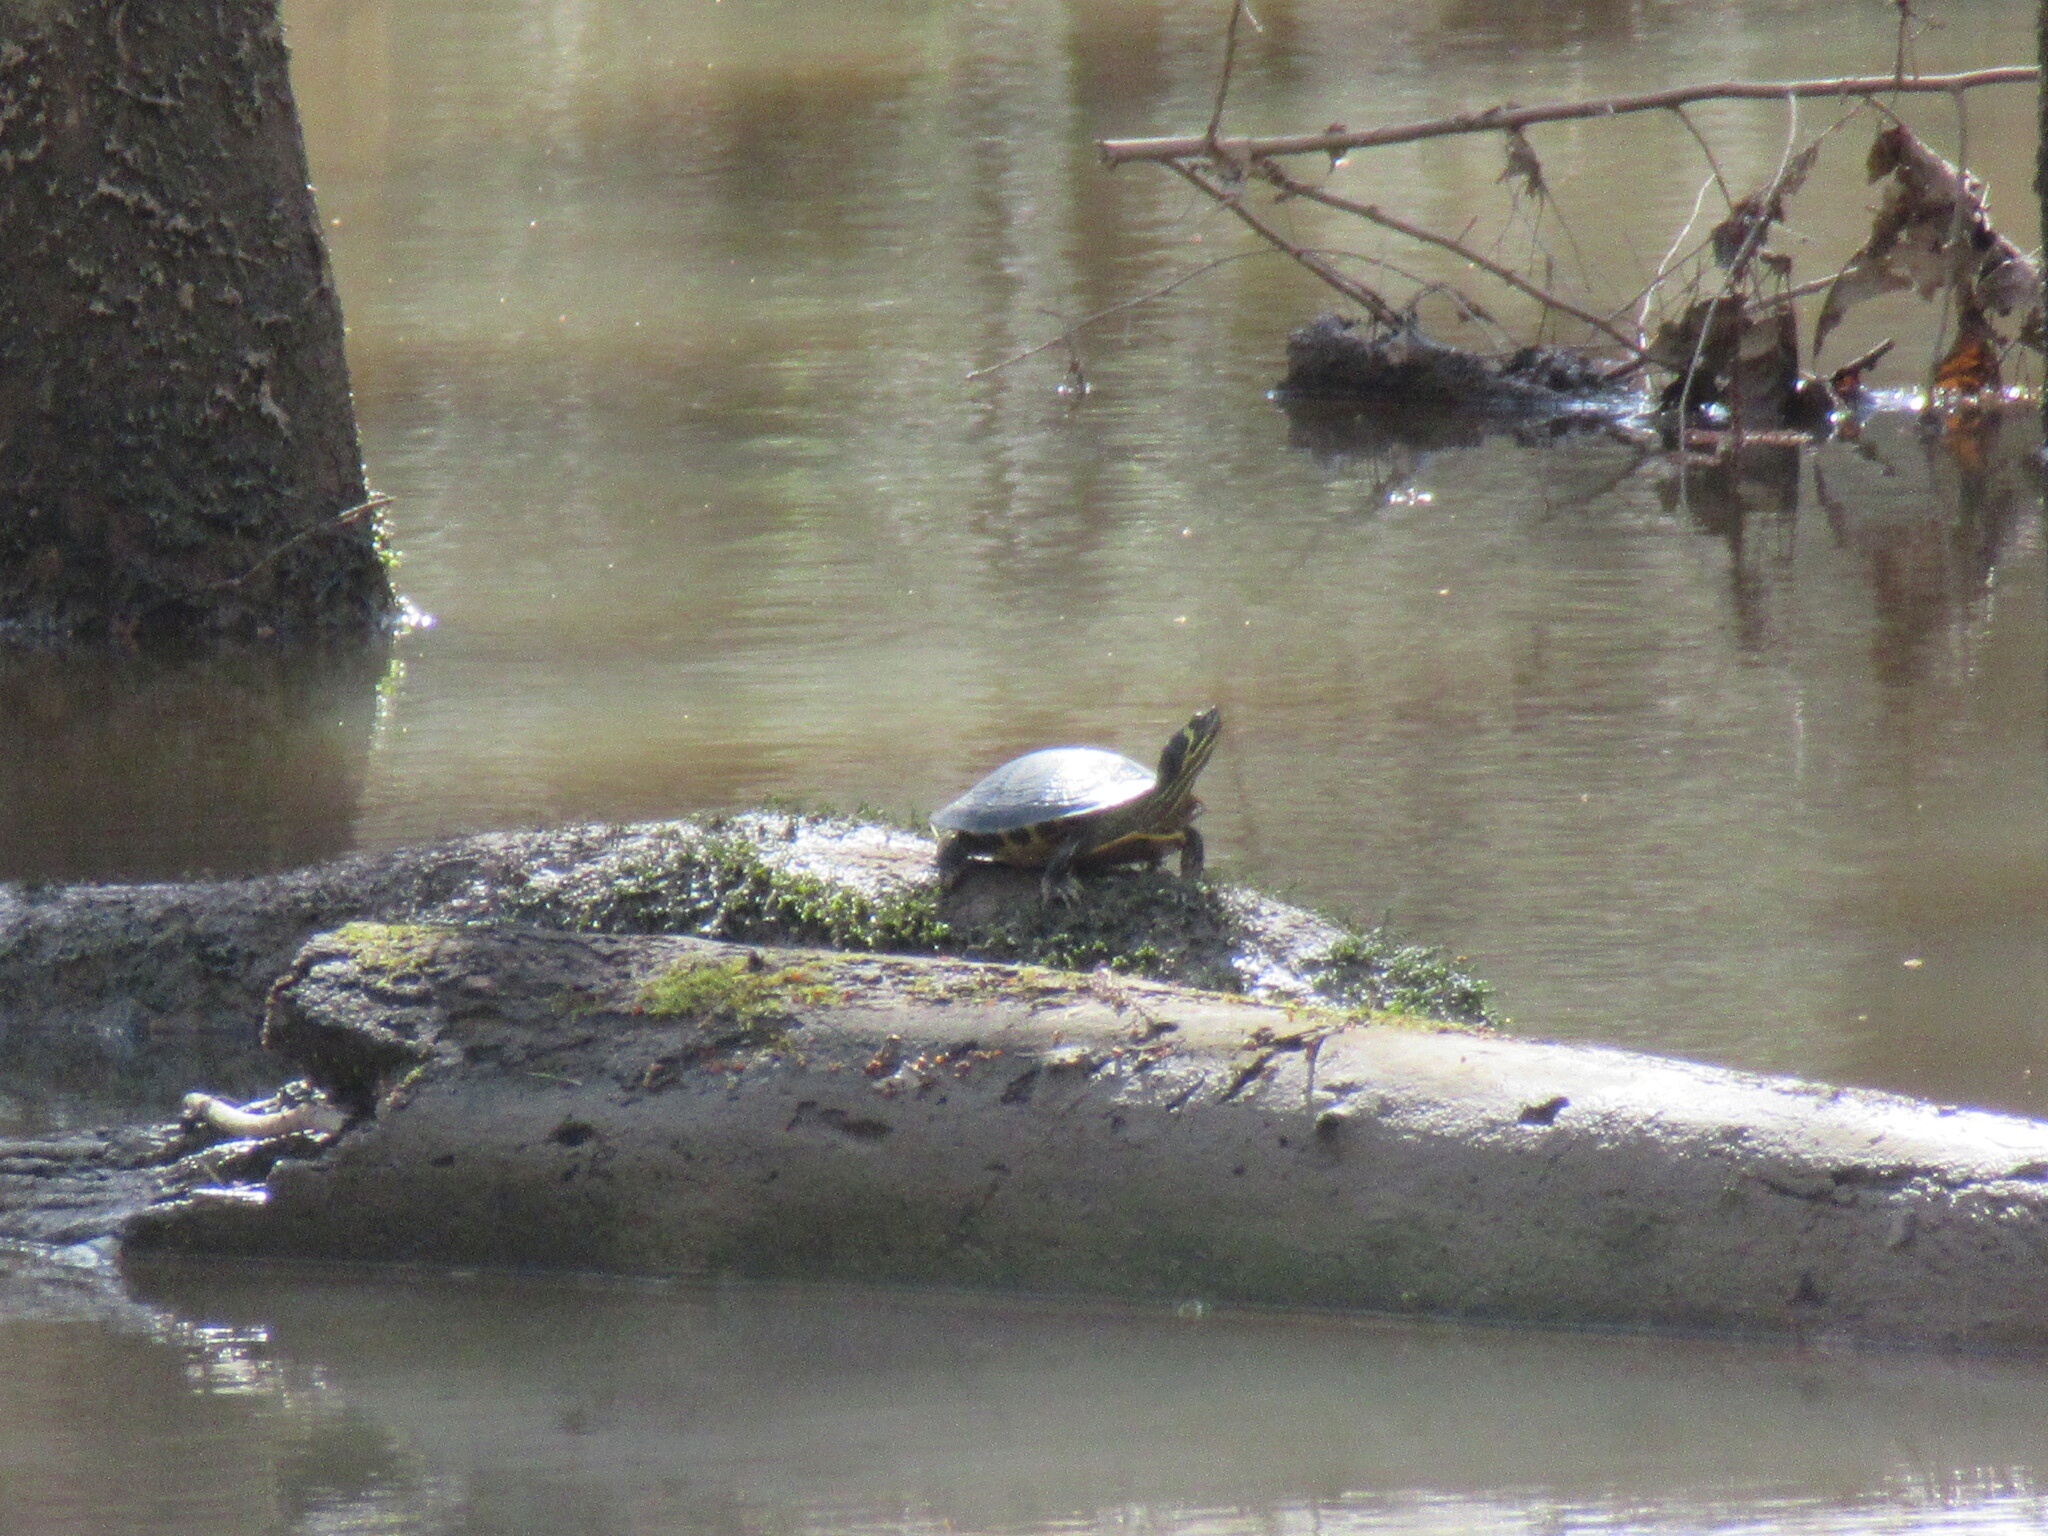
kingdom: Animalia
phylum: Chordata
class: Testudines
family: Emydidae
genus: Trachemys
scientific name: Trachemys scripta
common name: Slider
